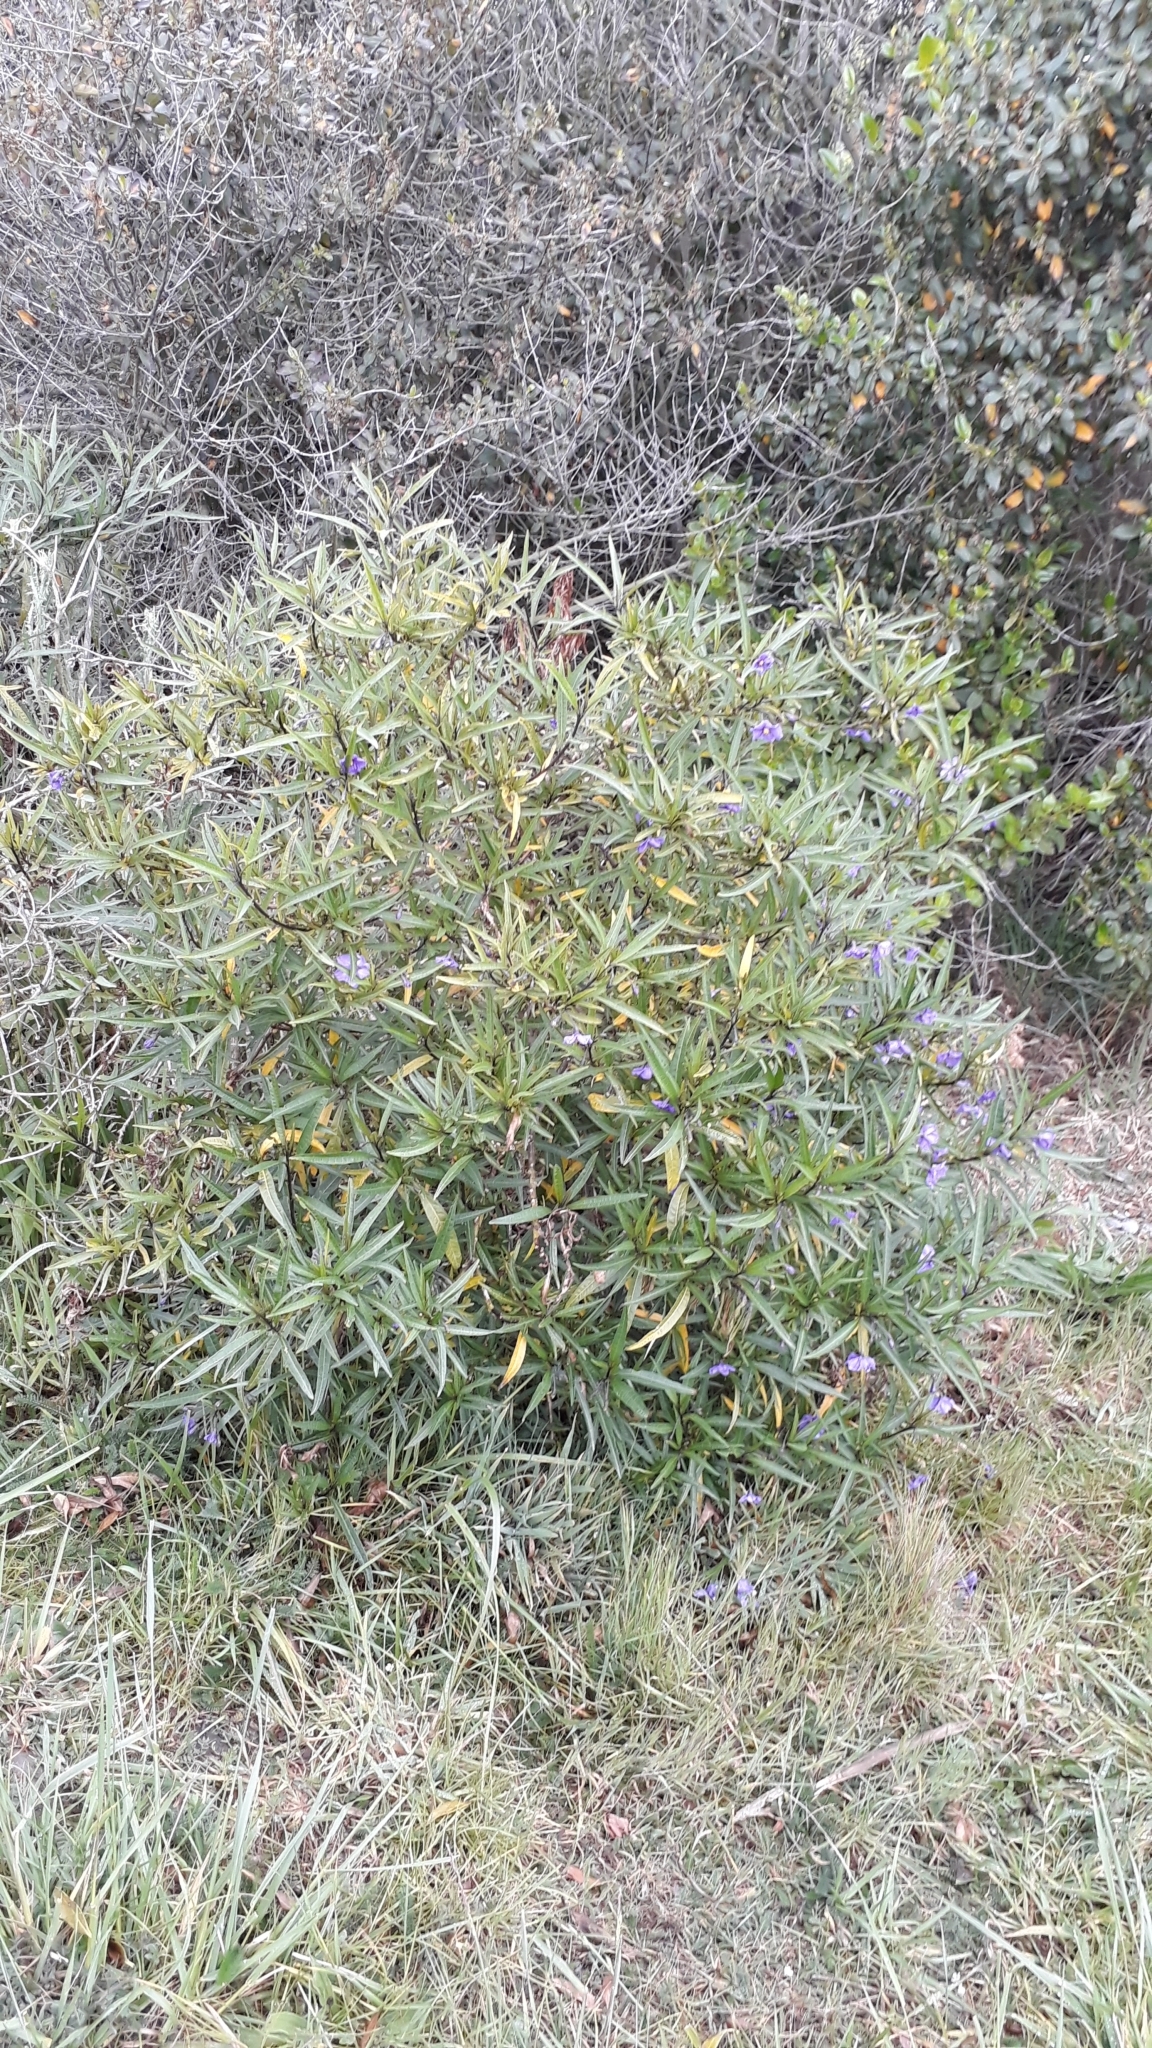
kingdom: Plantae
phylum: Tracheophyta
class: Magnoliopsida
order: Solanales
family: Solanaceae
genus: Solanum
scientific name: Solanum laciniatum
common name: Kangaroo-apple
